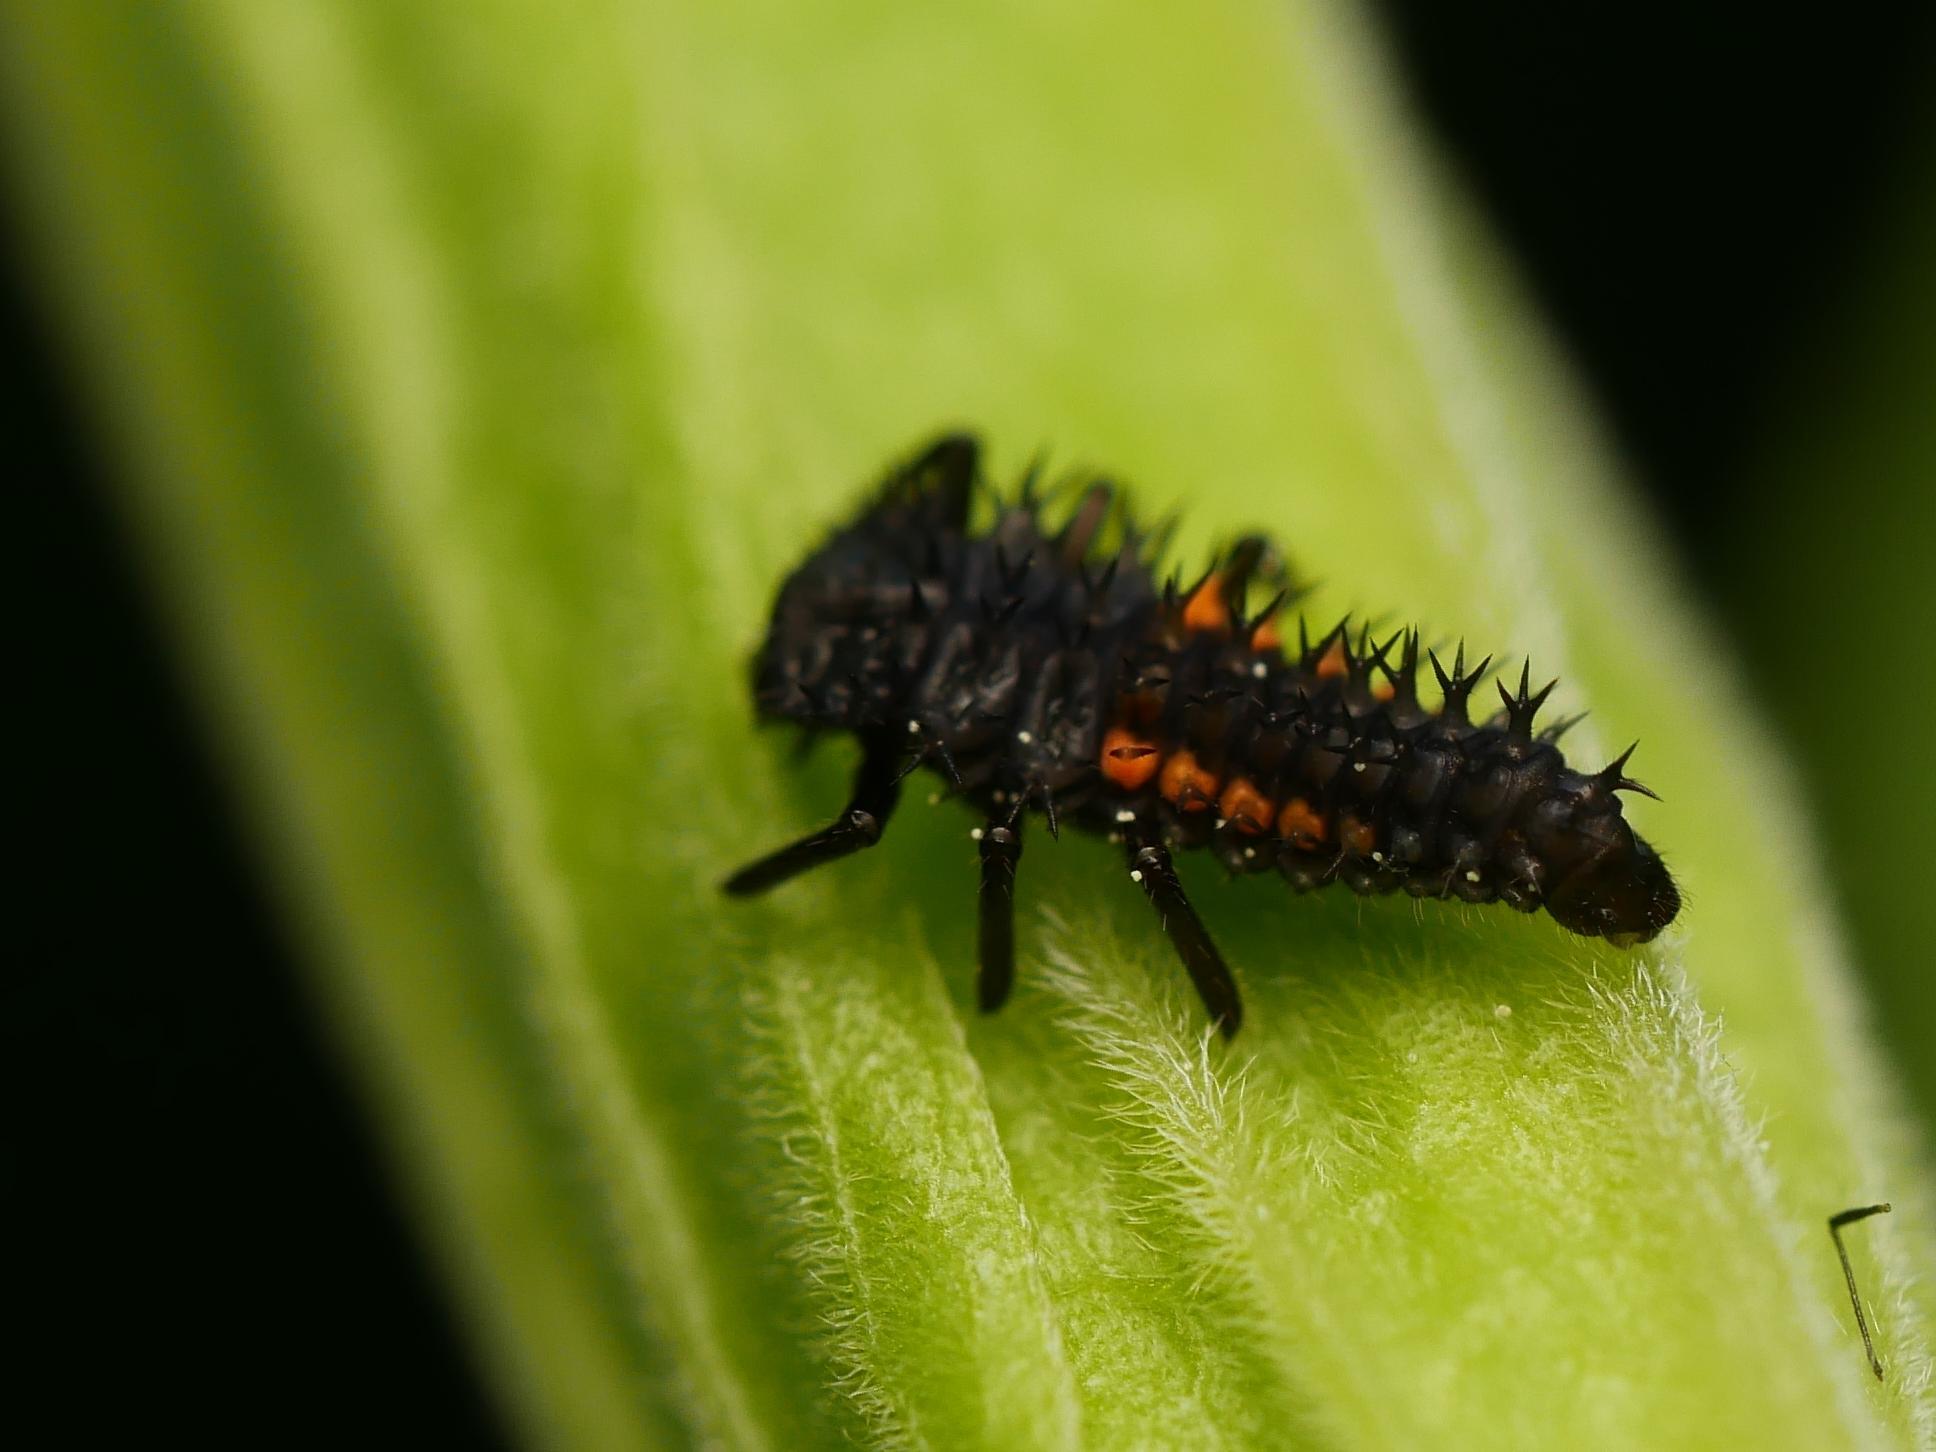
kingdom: Animalia
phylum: Arthropoda
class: Insecta
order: Coleoptera
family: Coccinellidae
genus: Harmonia
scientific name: Harmonia axyridis
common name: Harlequin ladybird
